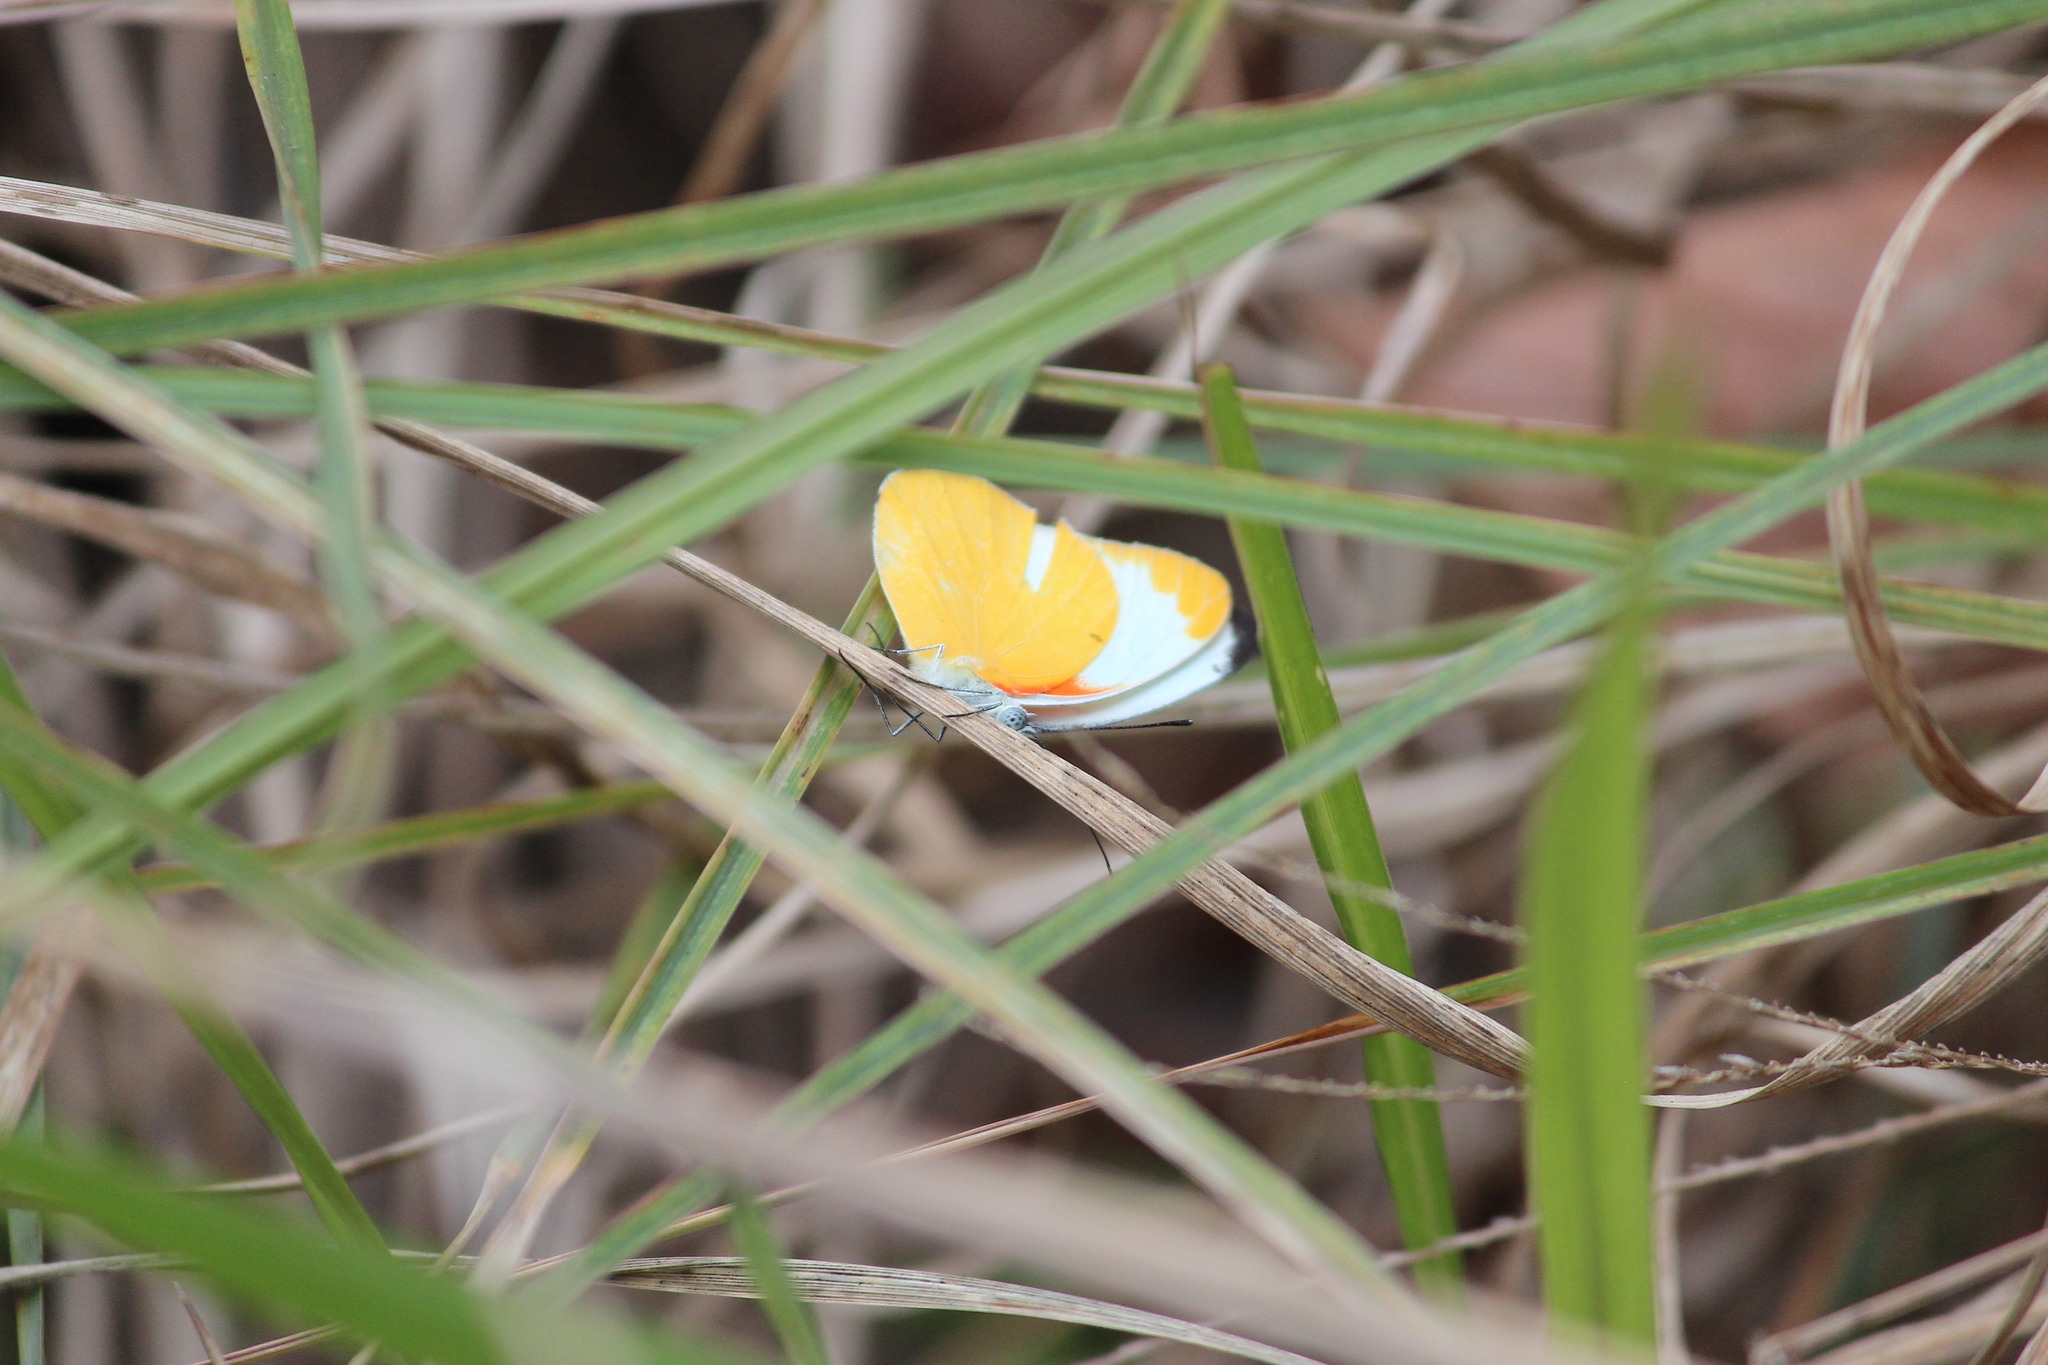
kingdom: Animalia
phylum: Arthropoda
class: Insecta
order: Lepidoptera
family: Pieridae
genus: Belenois
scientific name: Belenois thysa
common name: False dotted border
